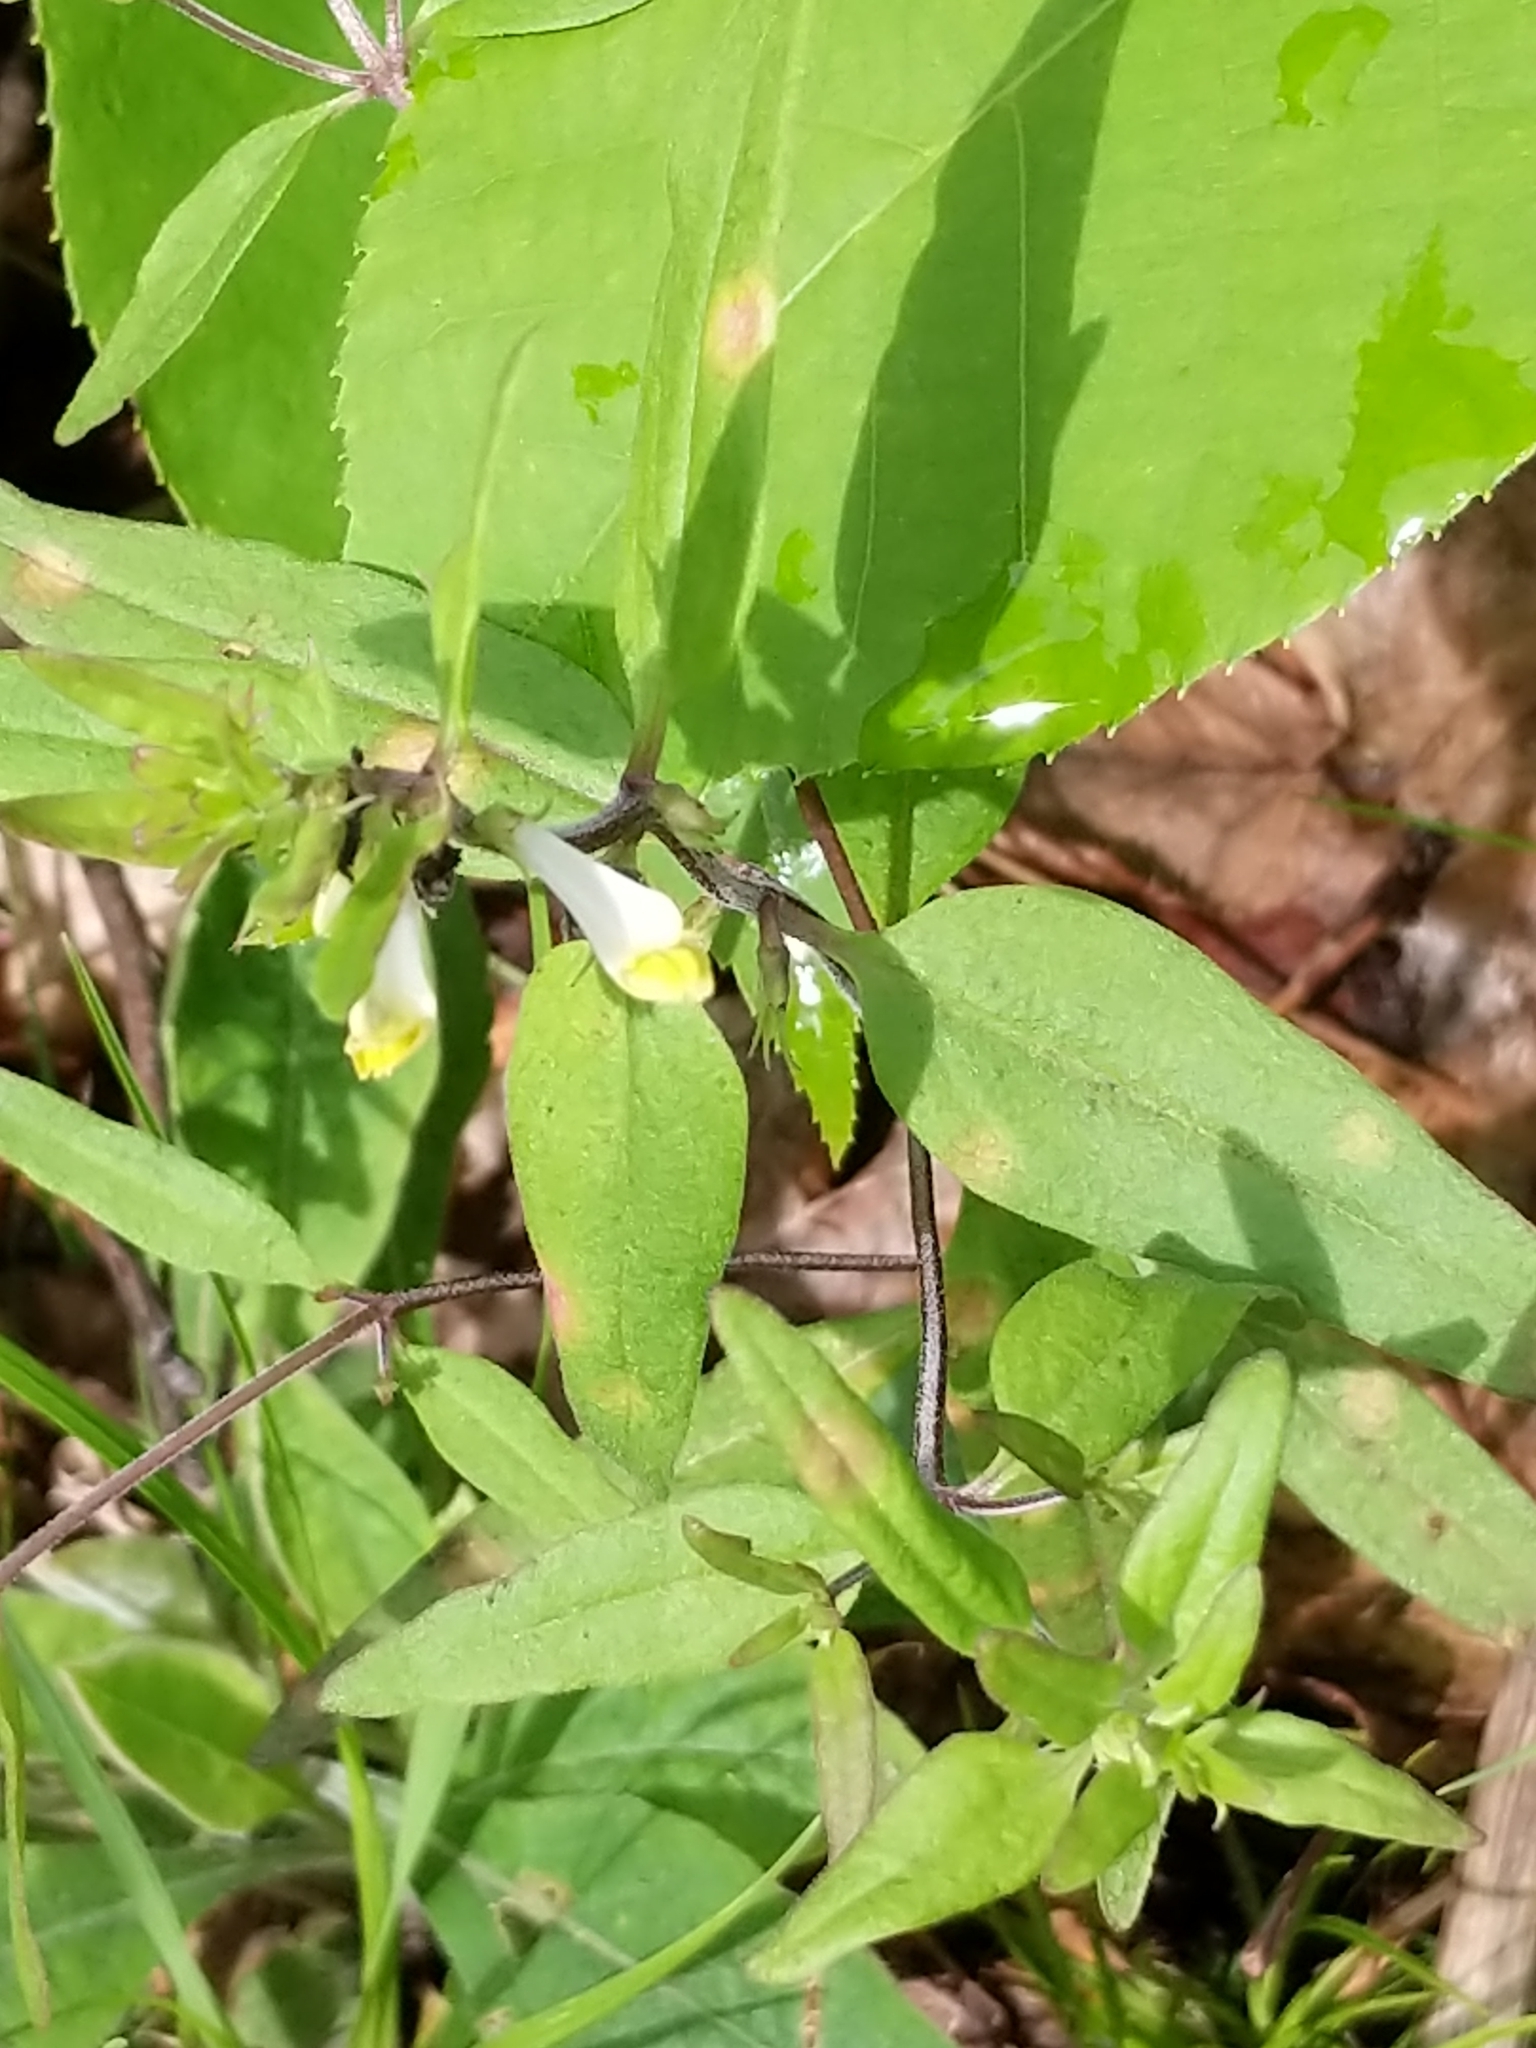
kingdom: Plantae
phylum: Tracheophyta
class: Magnoliopsida
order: Lamiales
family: Orobanchaceae
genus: Melampyrum
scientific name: Melampyrum lineare
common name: American cow-wheat
